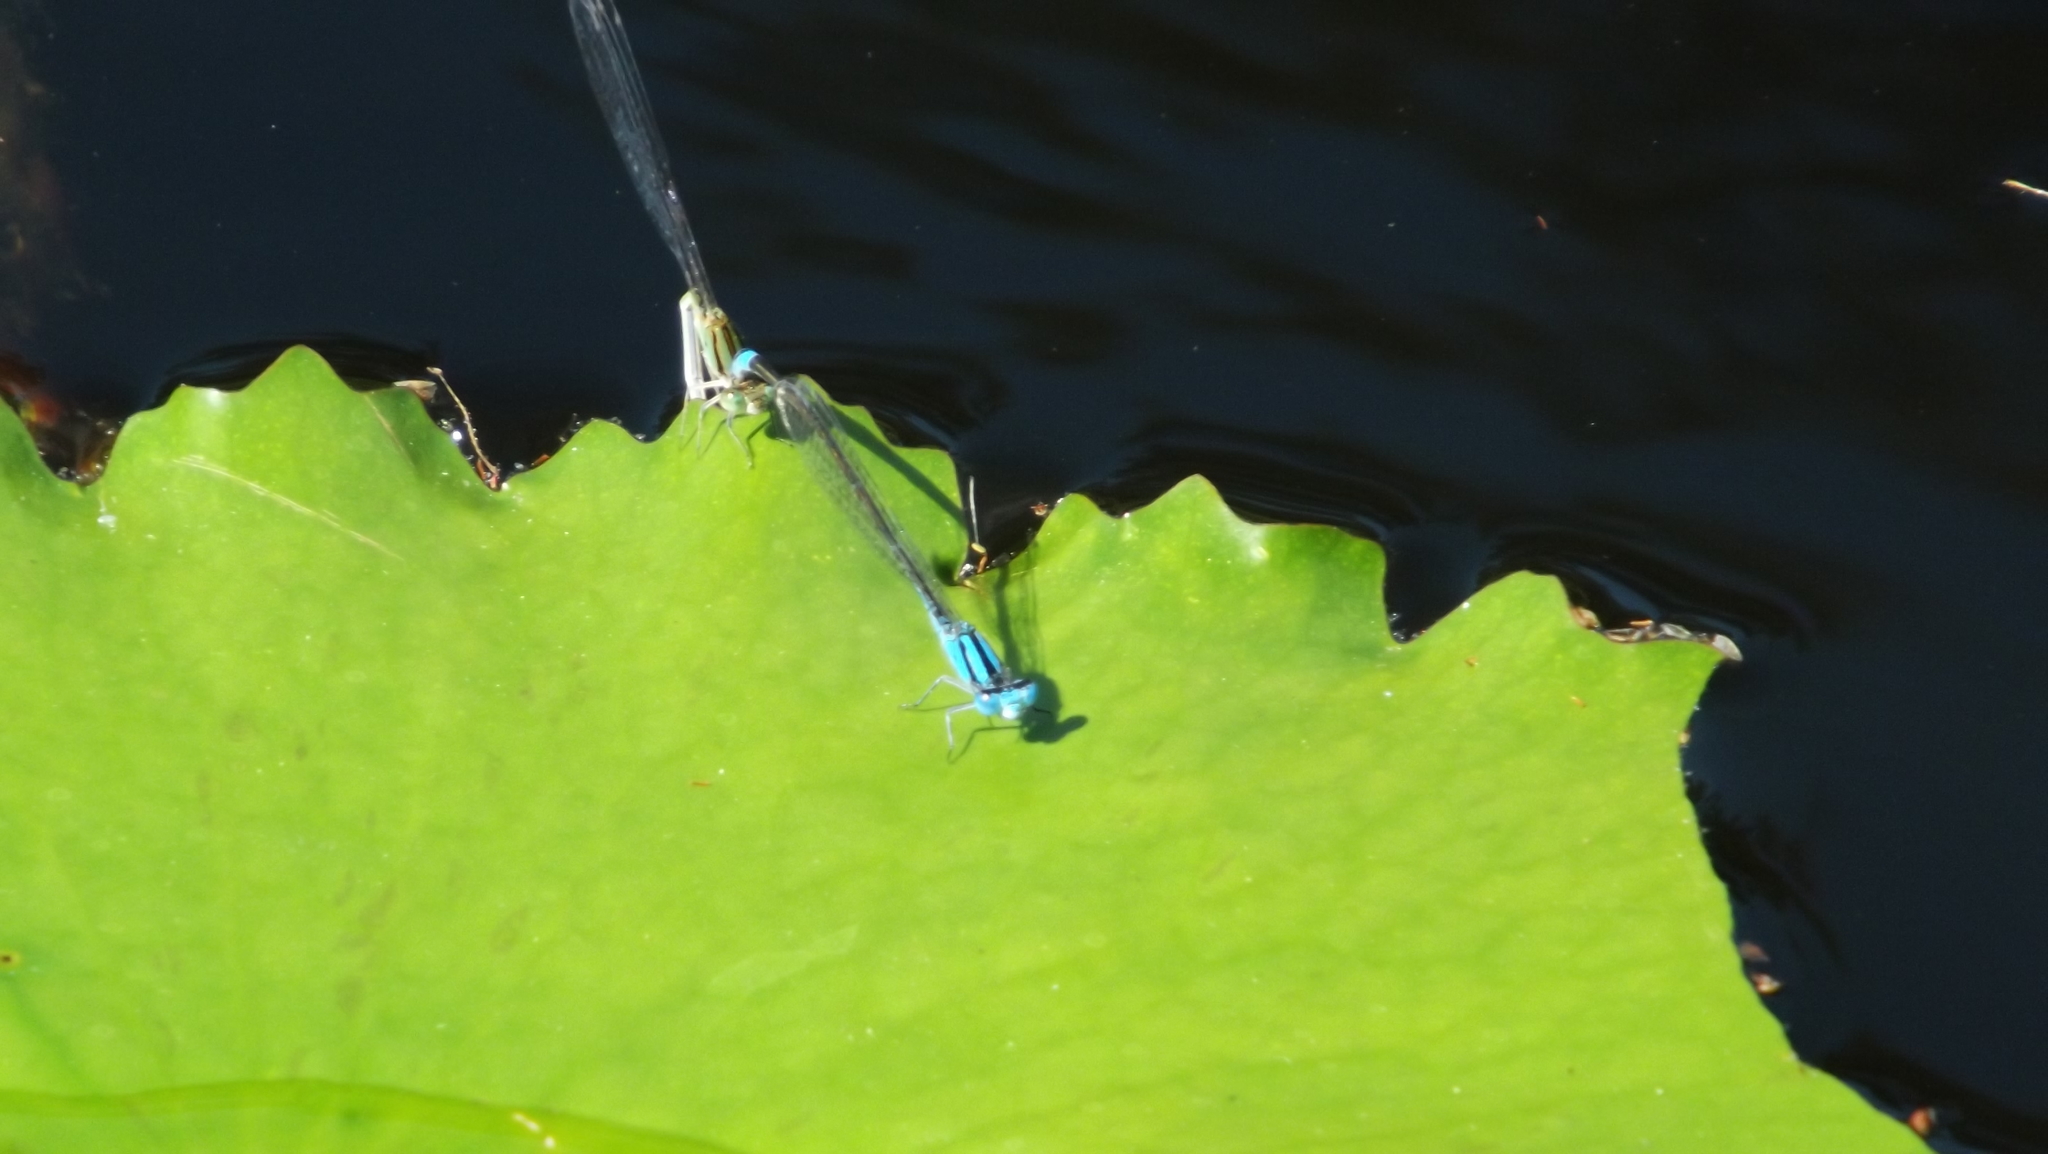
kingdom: Animalia
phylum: Arthropoda
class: Insecta
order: Odonata
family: Coenagrionidae
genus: Pseudagrion
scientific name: Pseudagrion microcephalum
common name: Blue riverdamsel
